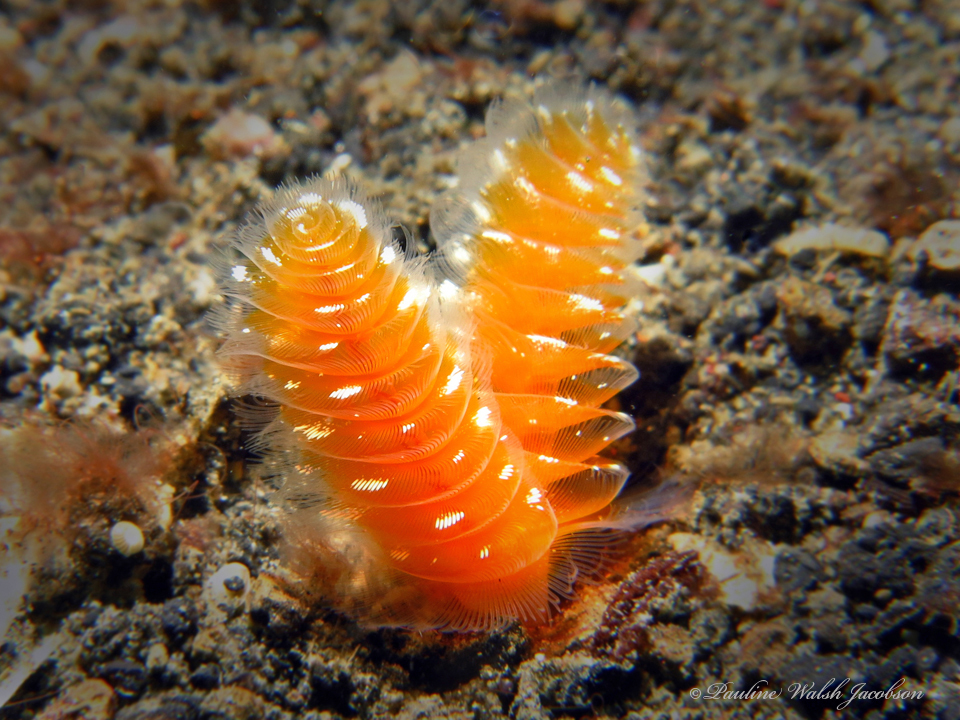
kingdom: Animalia
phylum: Phoronida
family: Phoronidae
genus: Phoronopsis
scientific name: Phoronopsis californica
